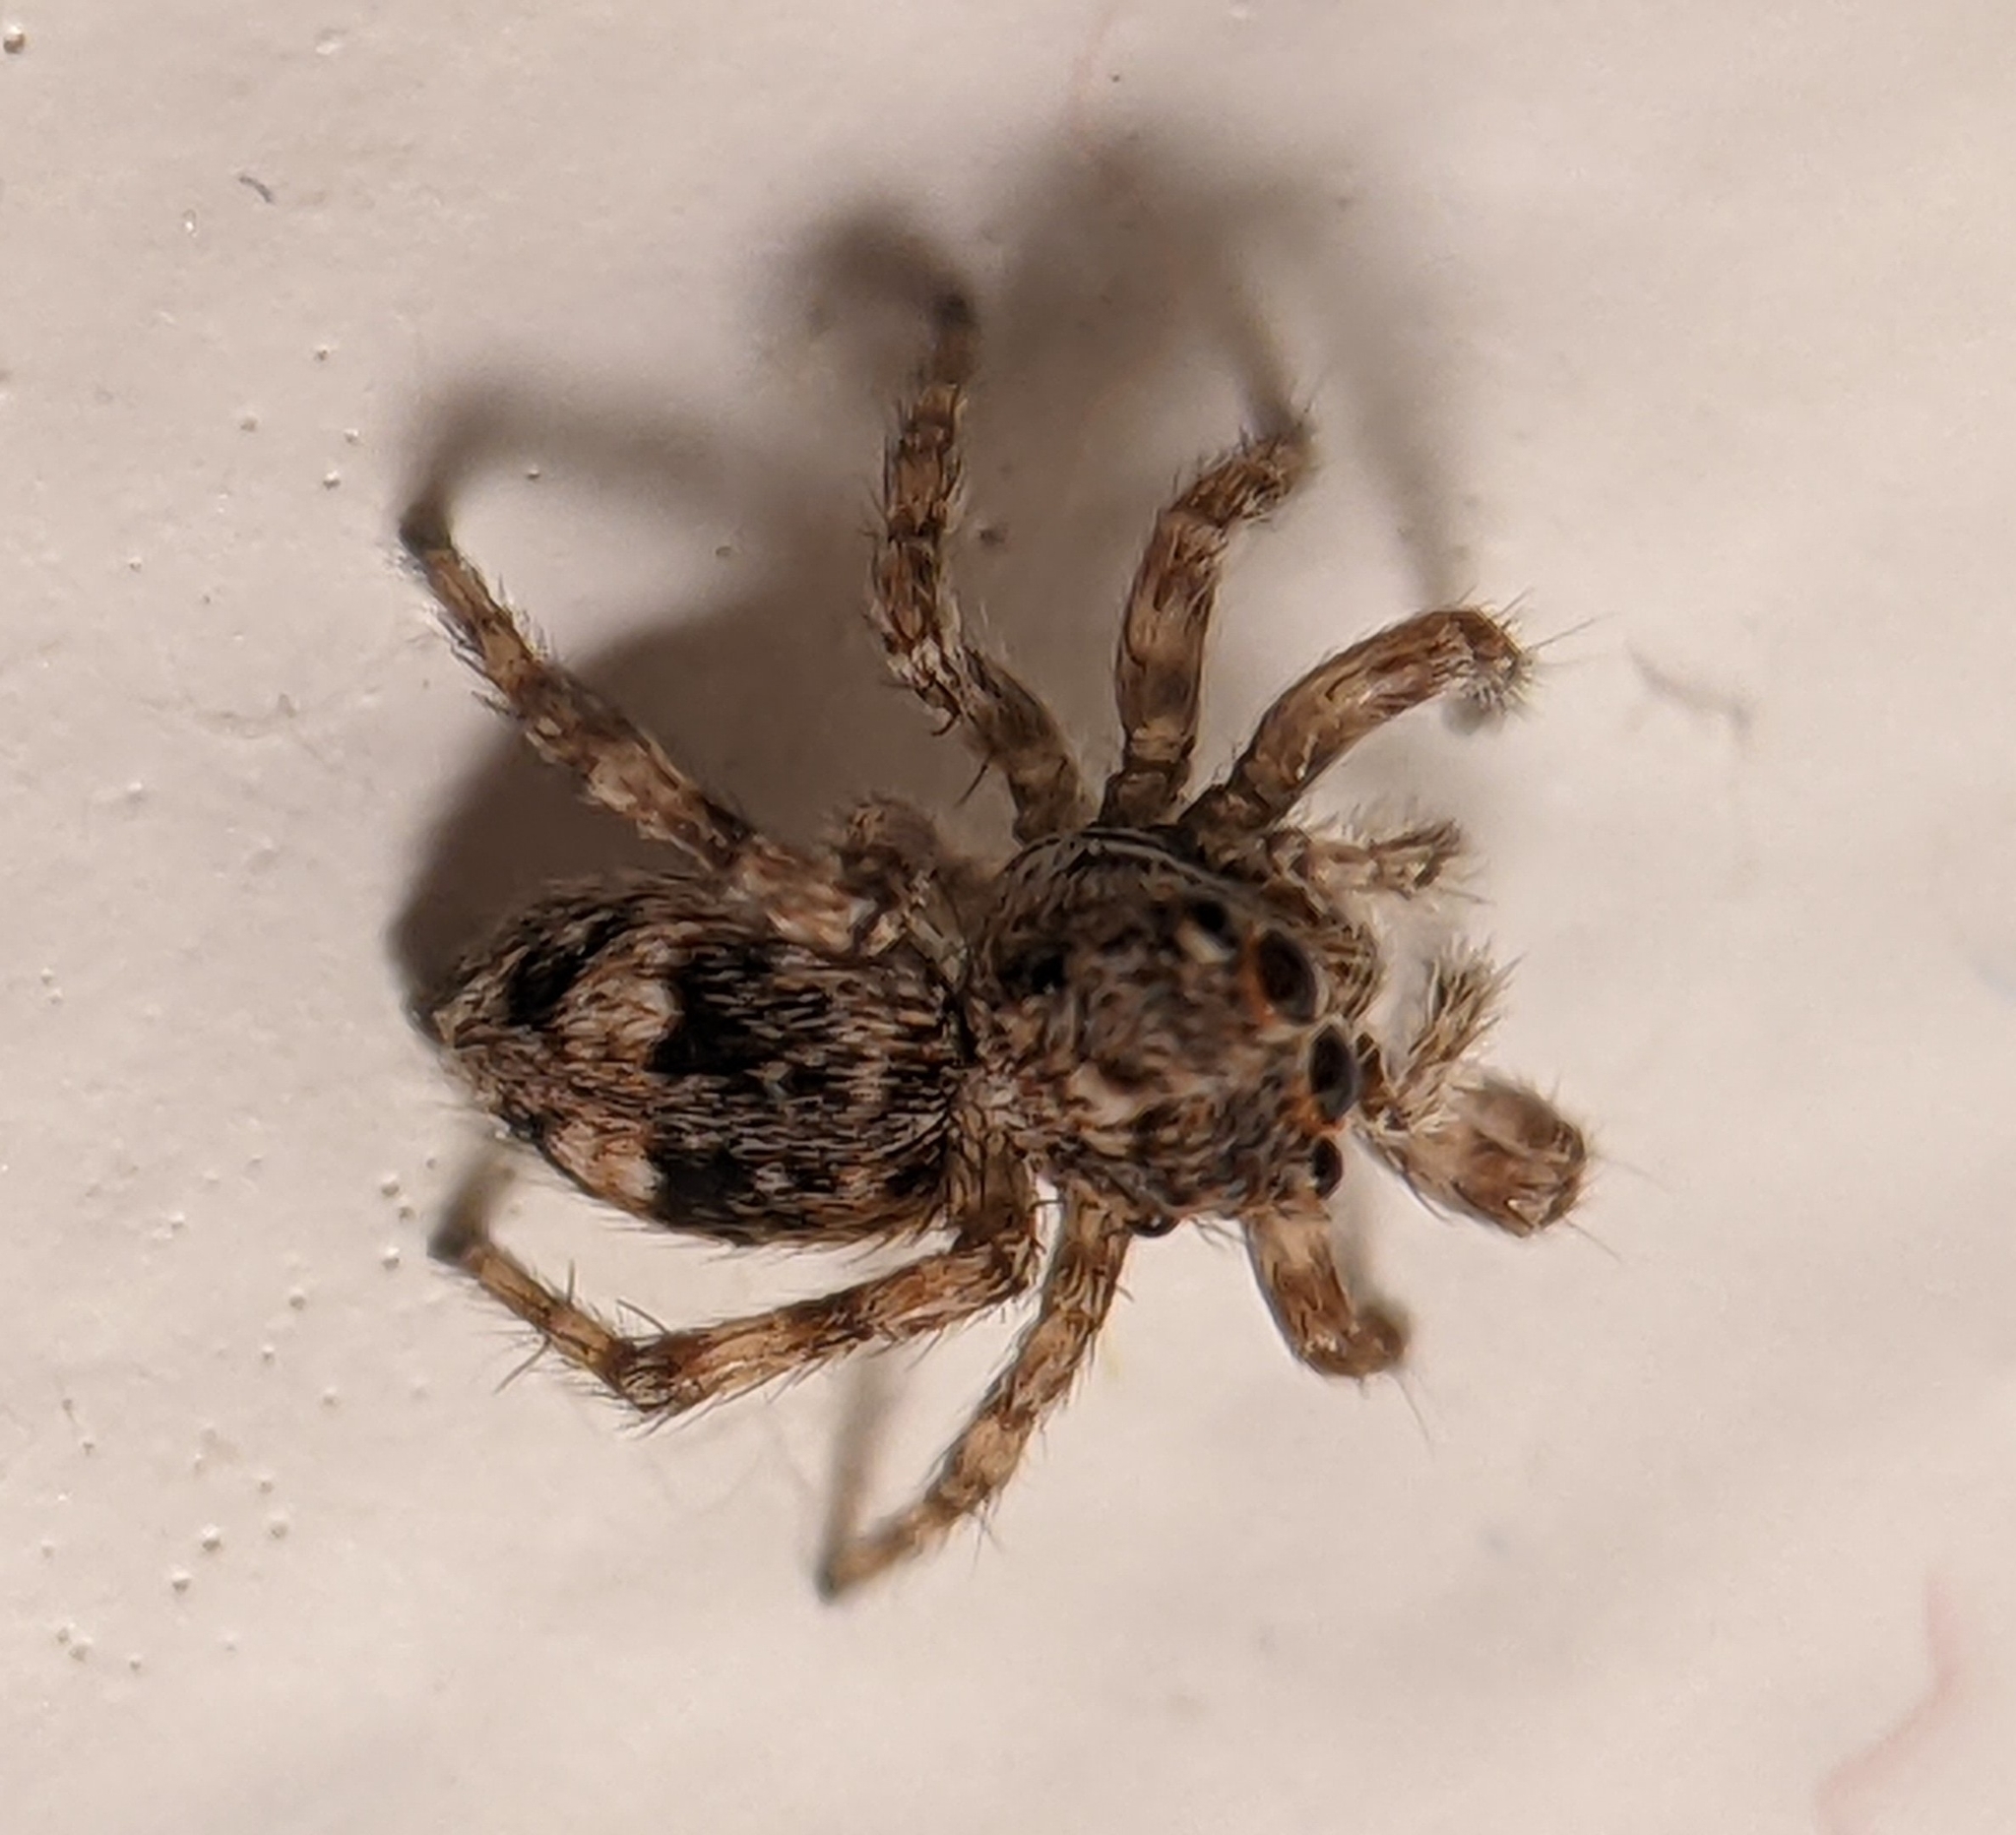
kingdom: Animalia
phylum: Arthropoda
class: Arachnida
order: Araneae
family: Salticidae
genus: Attulus
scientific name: Attulus fasciger
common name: Asiatic wall jumping spider
